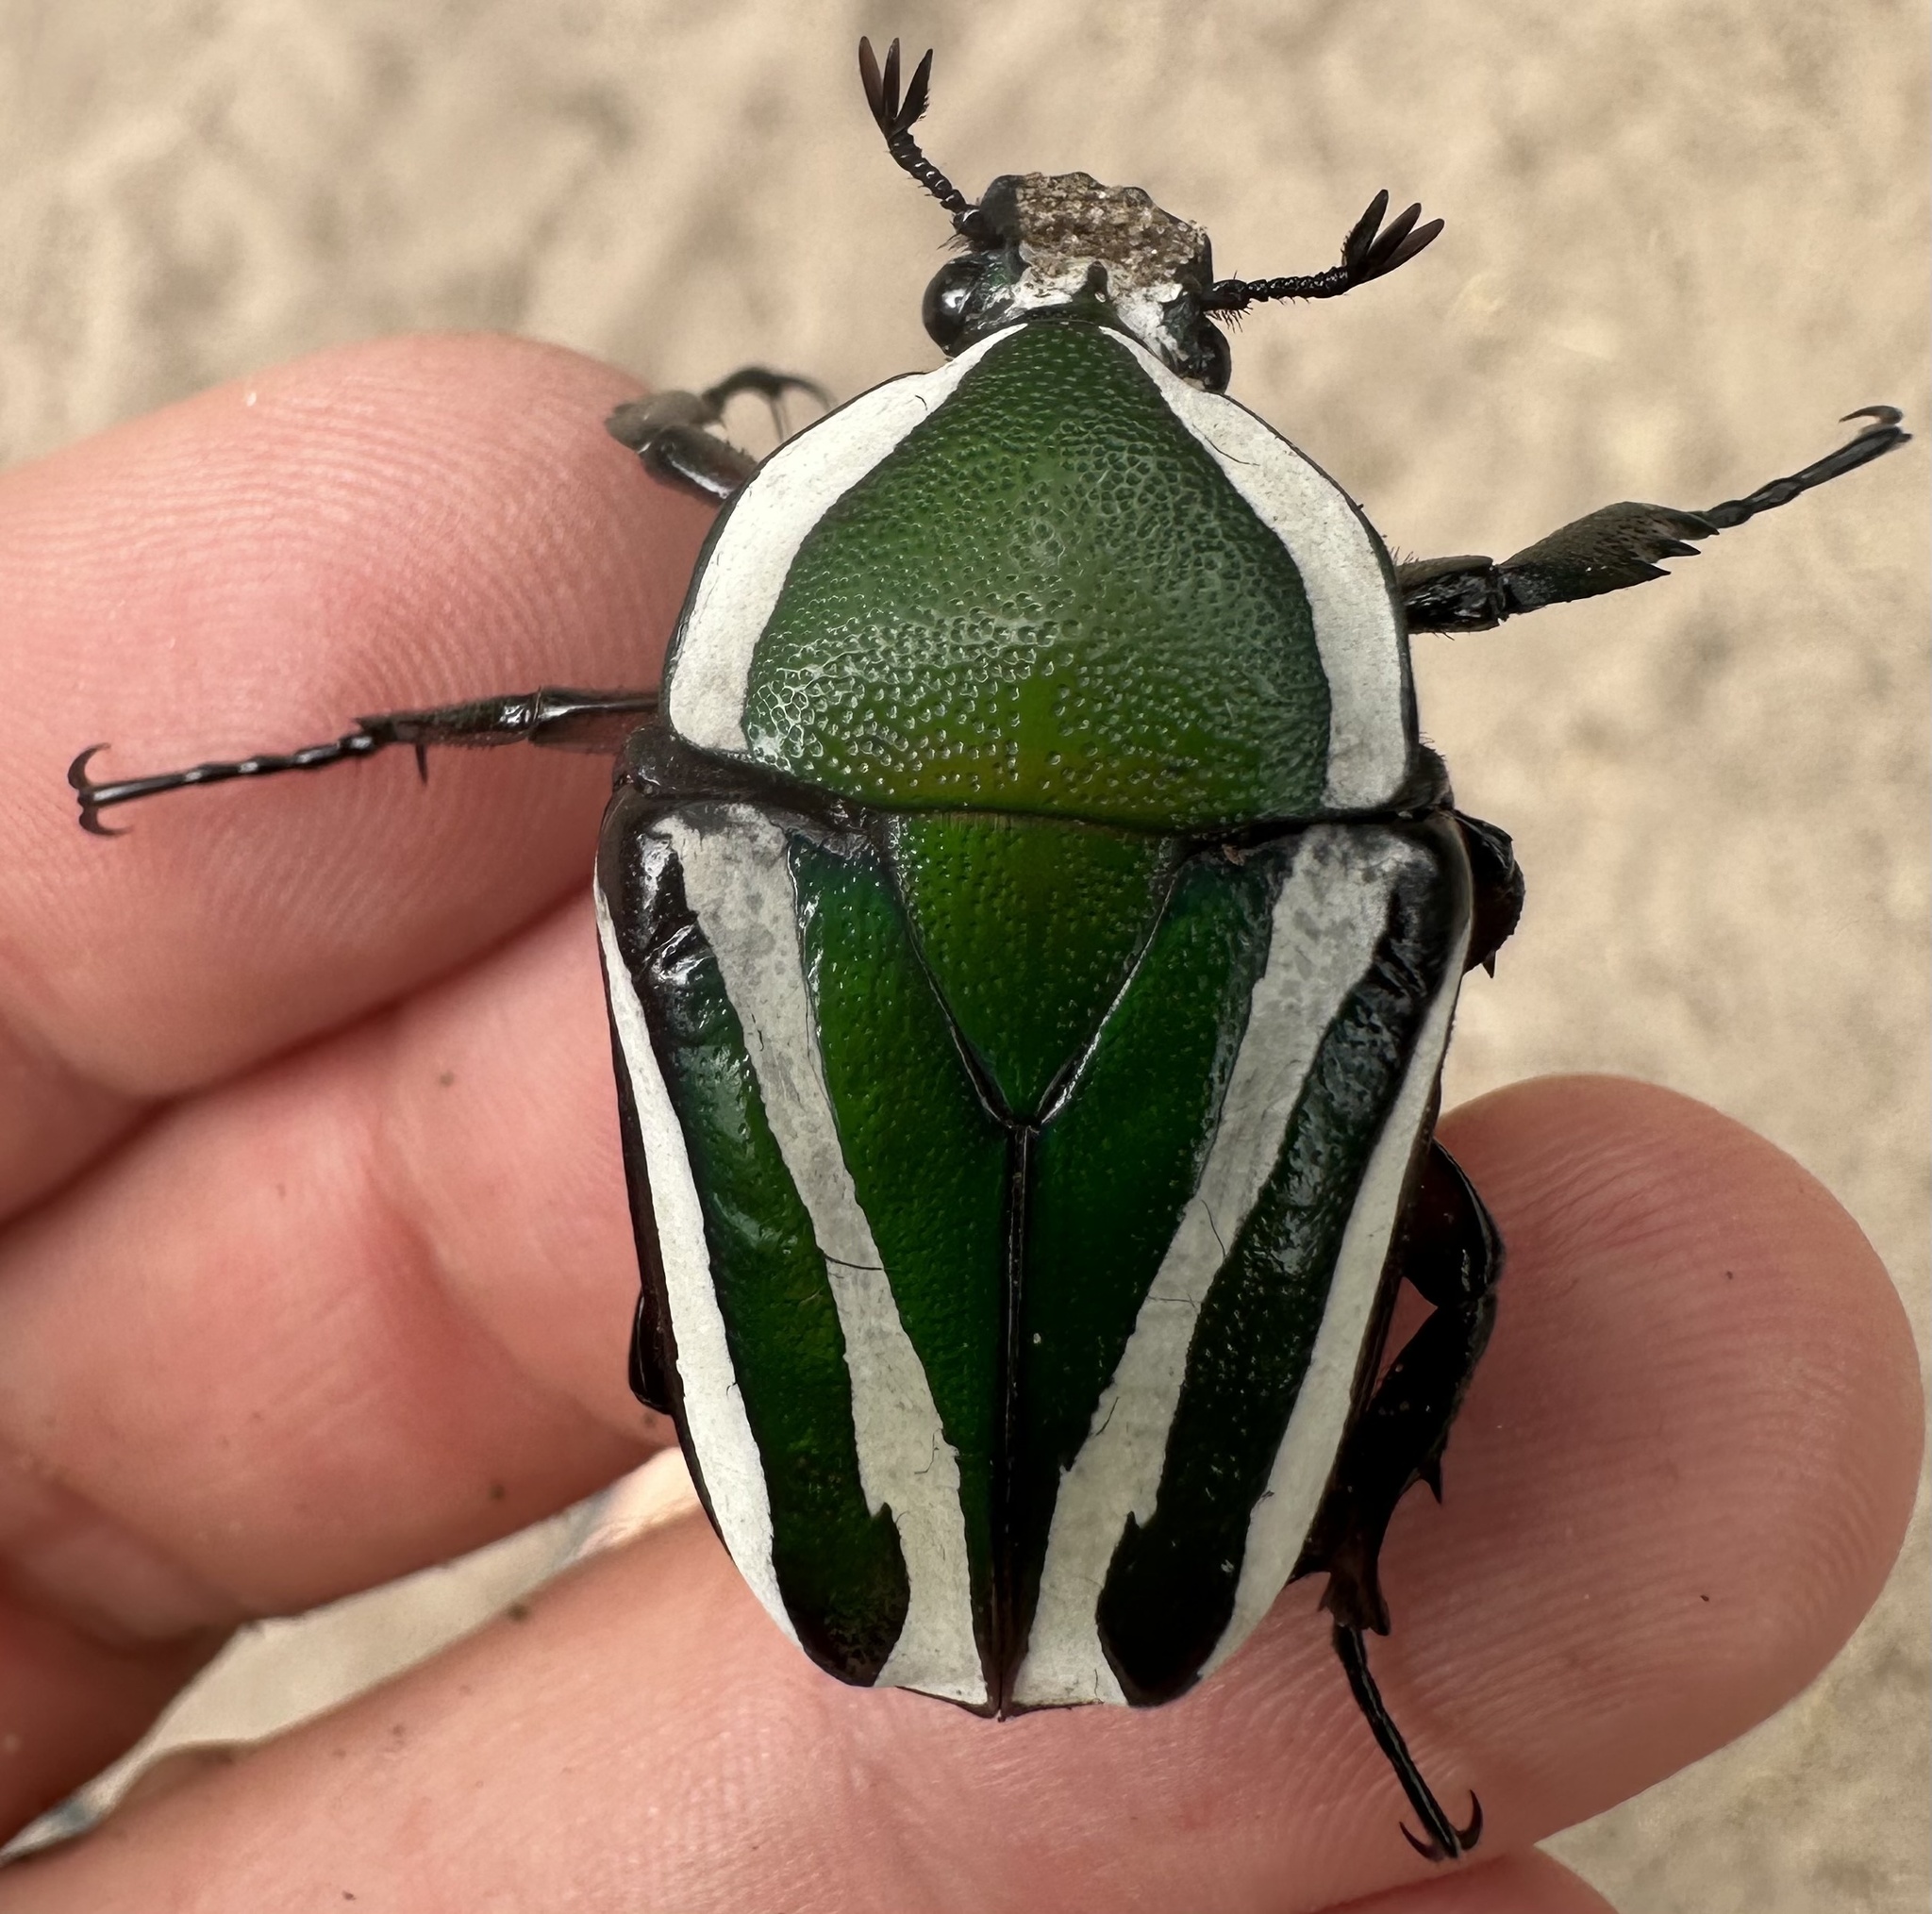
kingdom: Animalia
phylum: Arthropoda
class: Insecta
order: Coleoptera
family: Scarabaeidae
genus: Dicronorhina
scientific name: Dicronorhina derbyana
